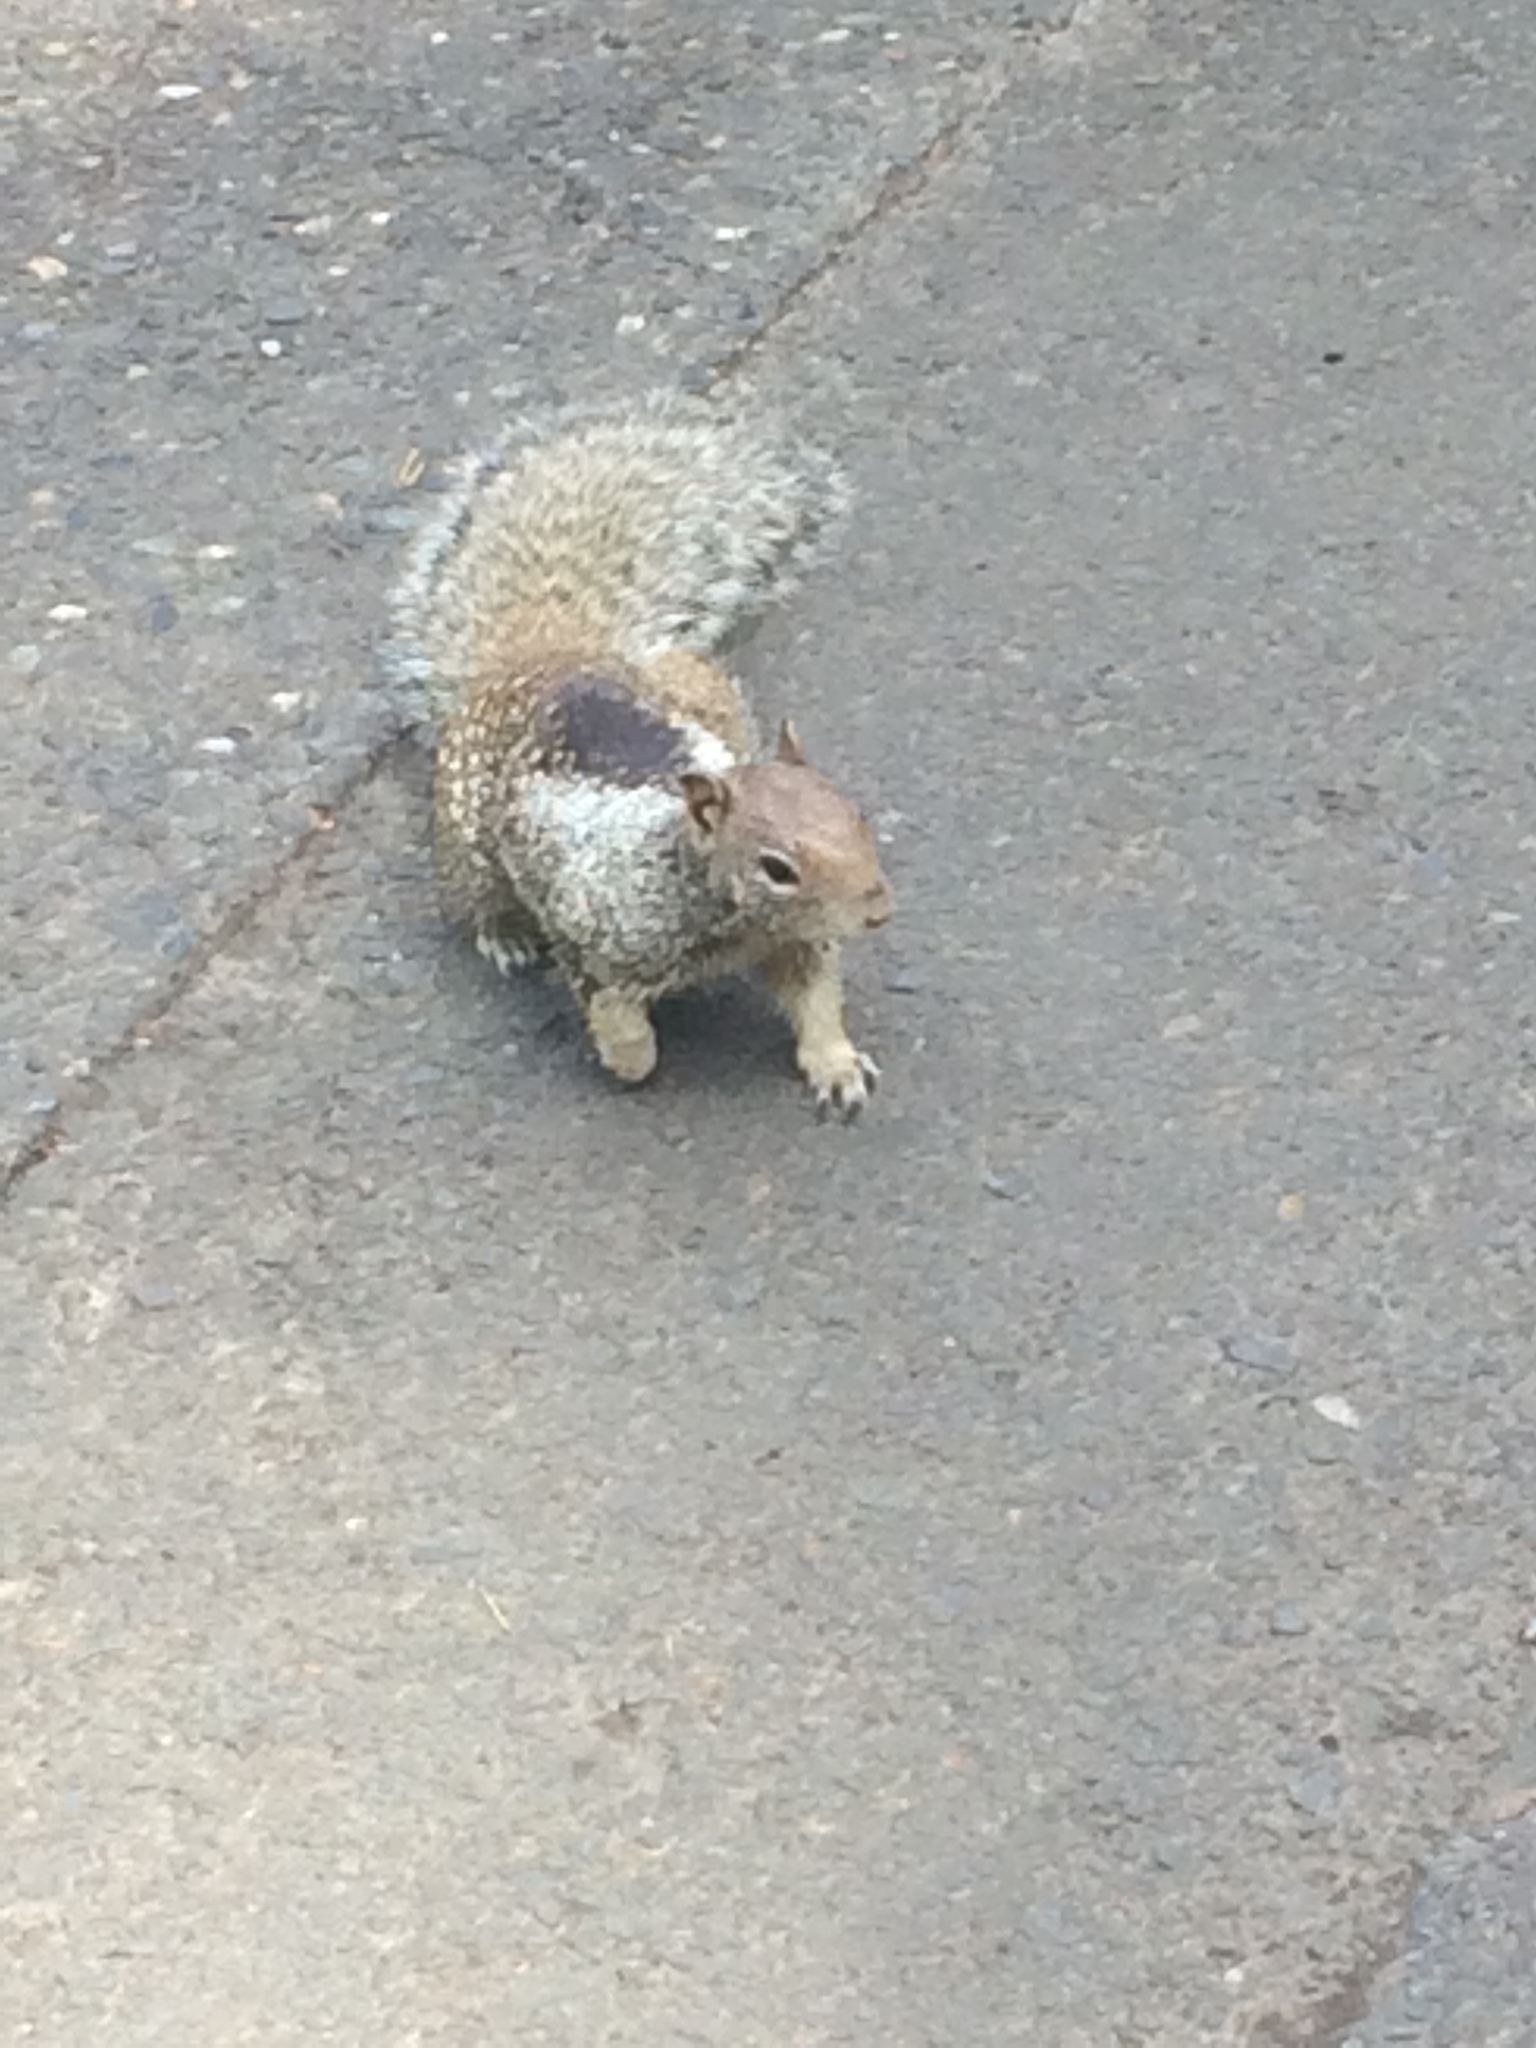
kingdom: Animalia
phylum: Chordata
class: Mammalia
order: Rodentia
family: Sciuridae
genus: Otospermophilus
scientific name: Otospermophilus beecheyi
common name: California ground squirrel
